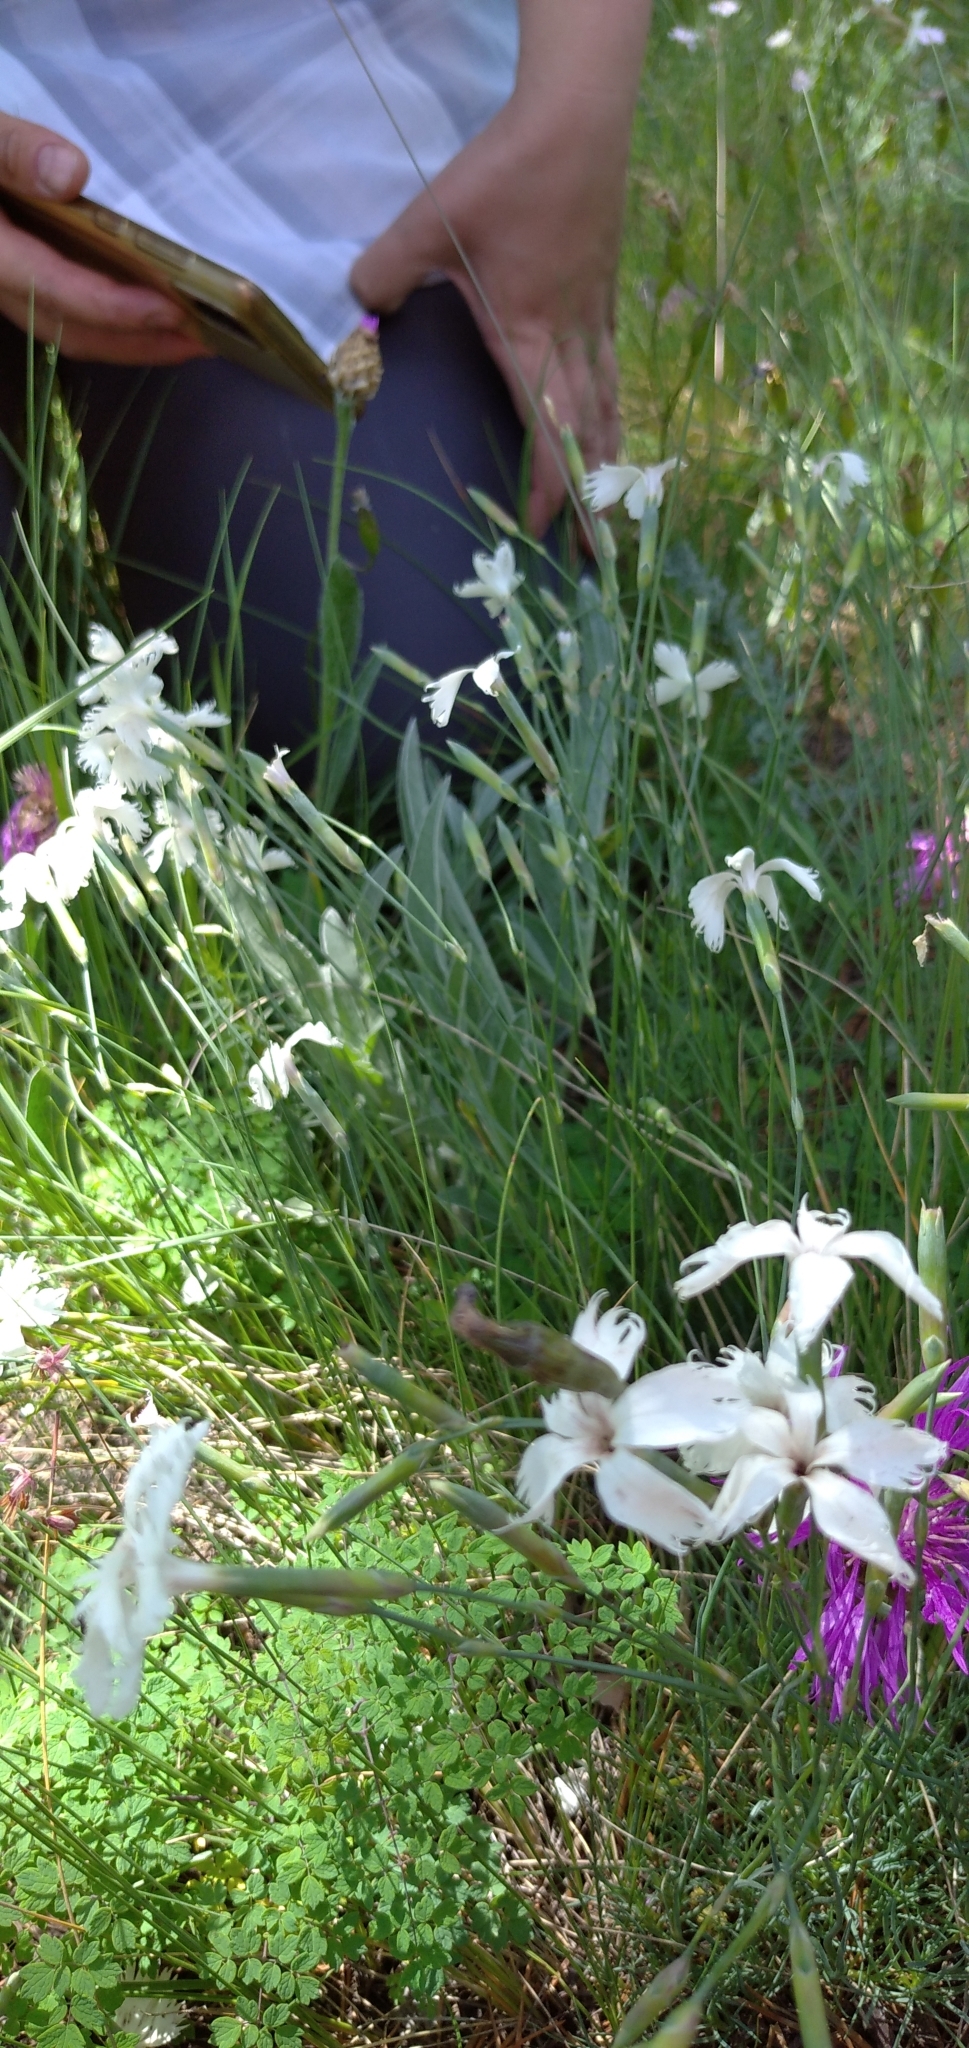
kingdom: Plantae
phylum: Tracheophyta
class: Magnoliopsida
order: Caryophyllales
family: Caryophyllaceae
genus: Dianthus
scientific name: Dianthus acicularis
